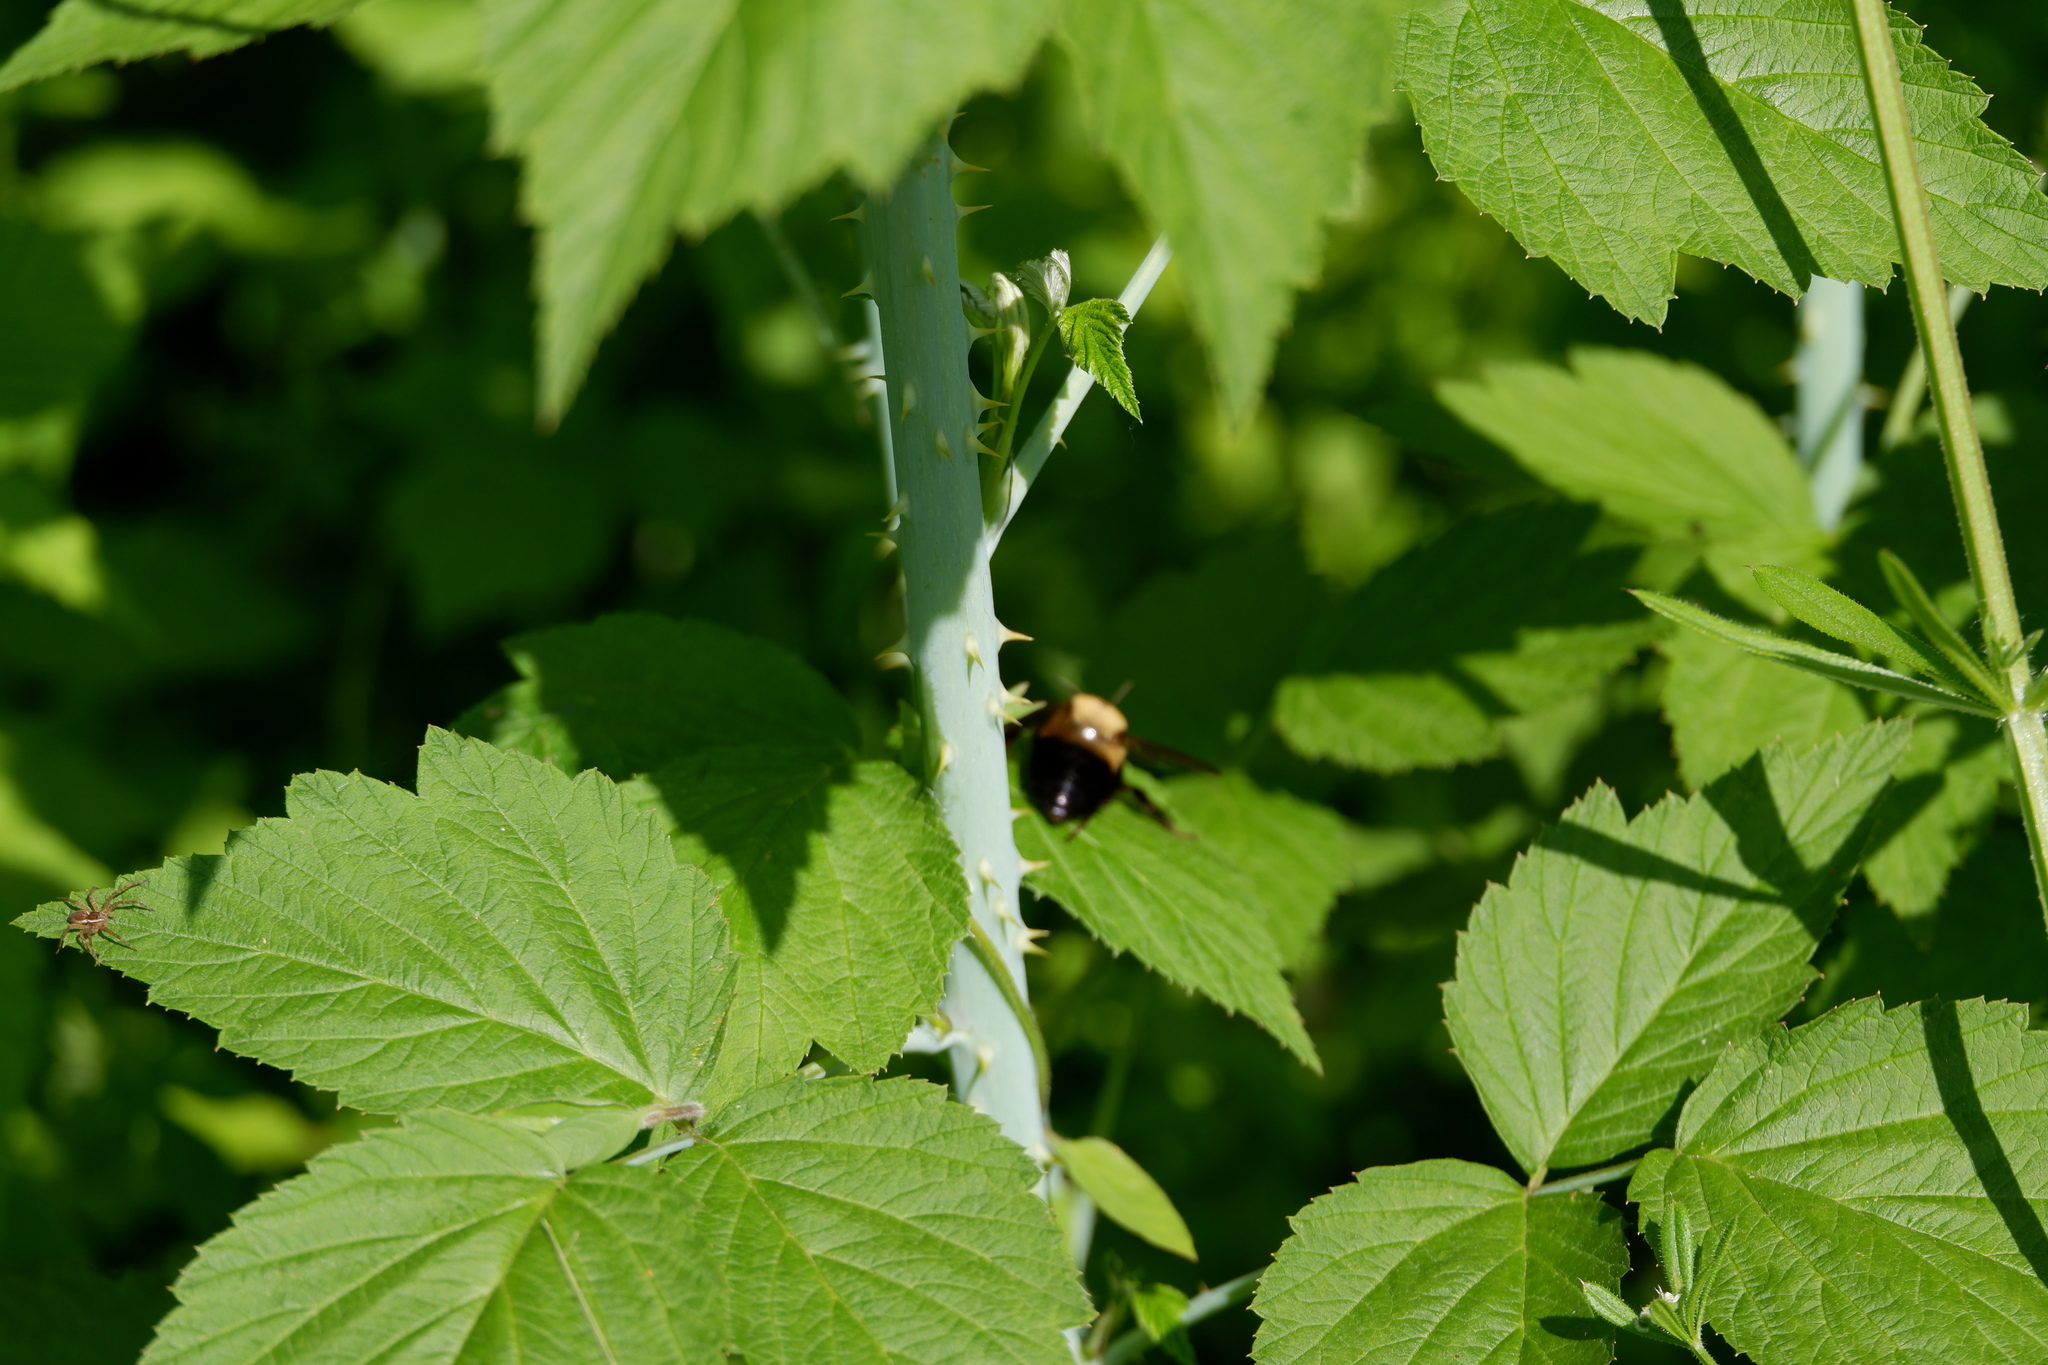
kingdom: Animalia
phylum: Arthropoda
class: Insecta
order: Hymenoptera
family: Apidae
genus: Bombus
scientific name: Bombus griseocollis
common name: Brown-belted bumble bee
